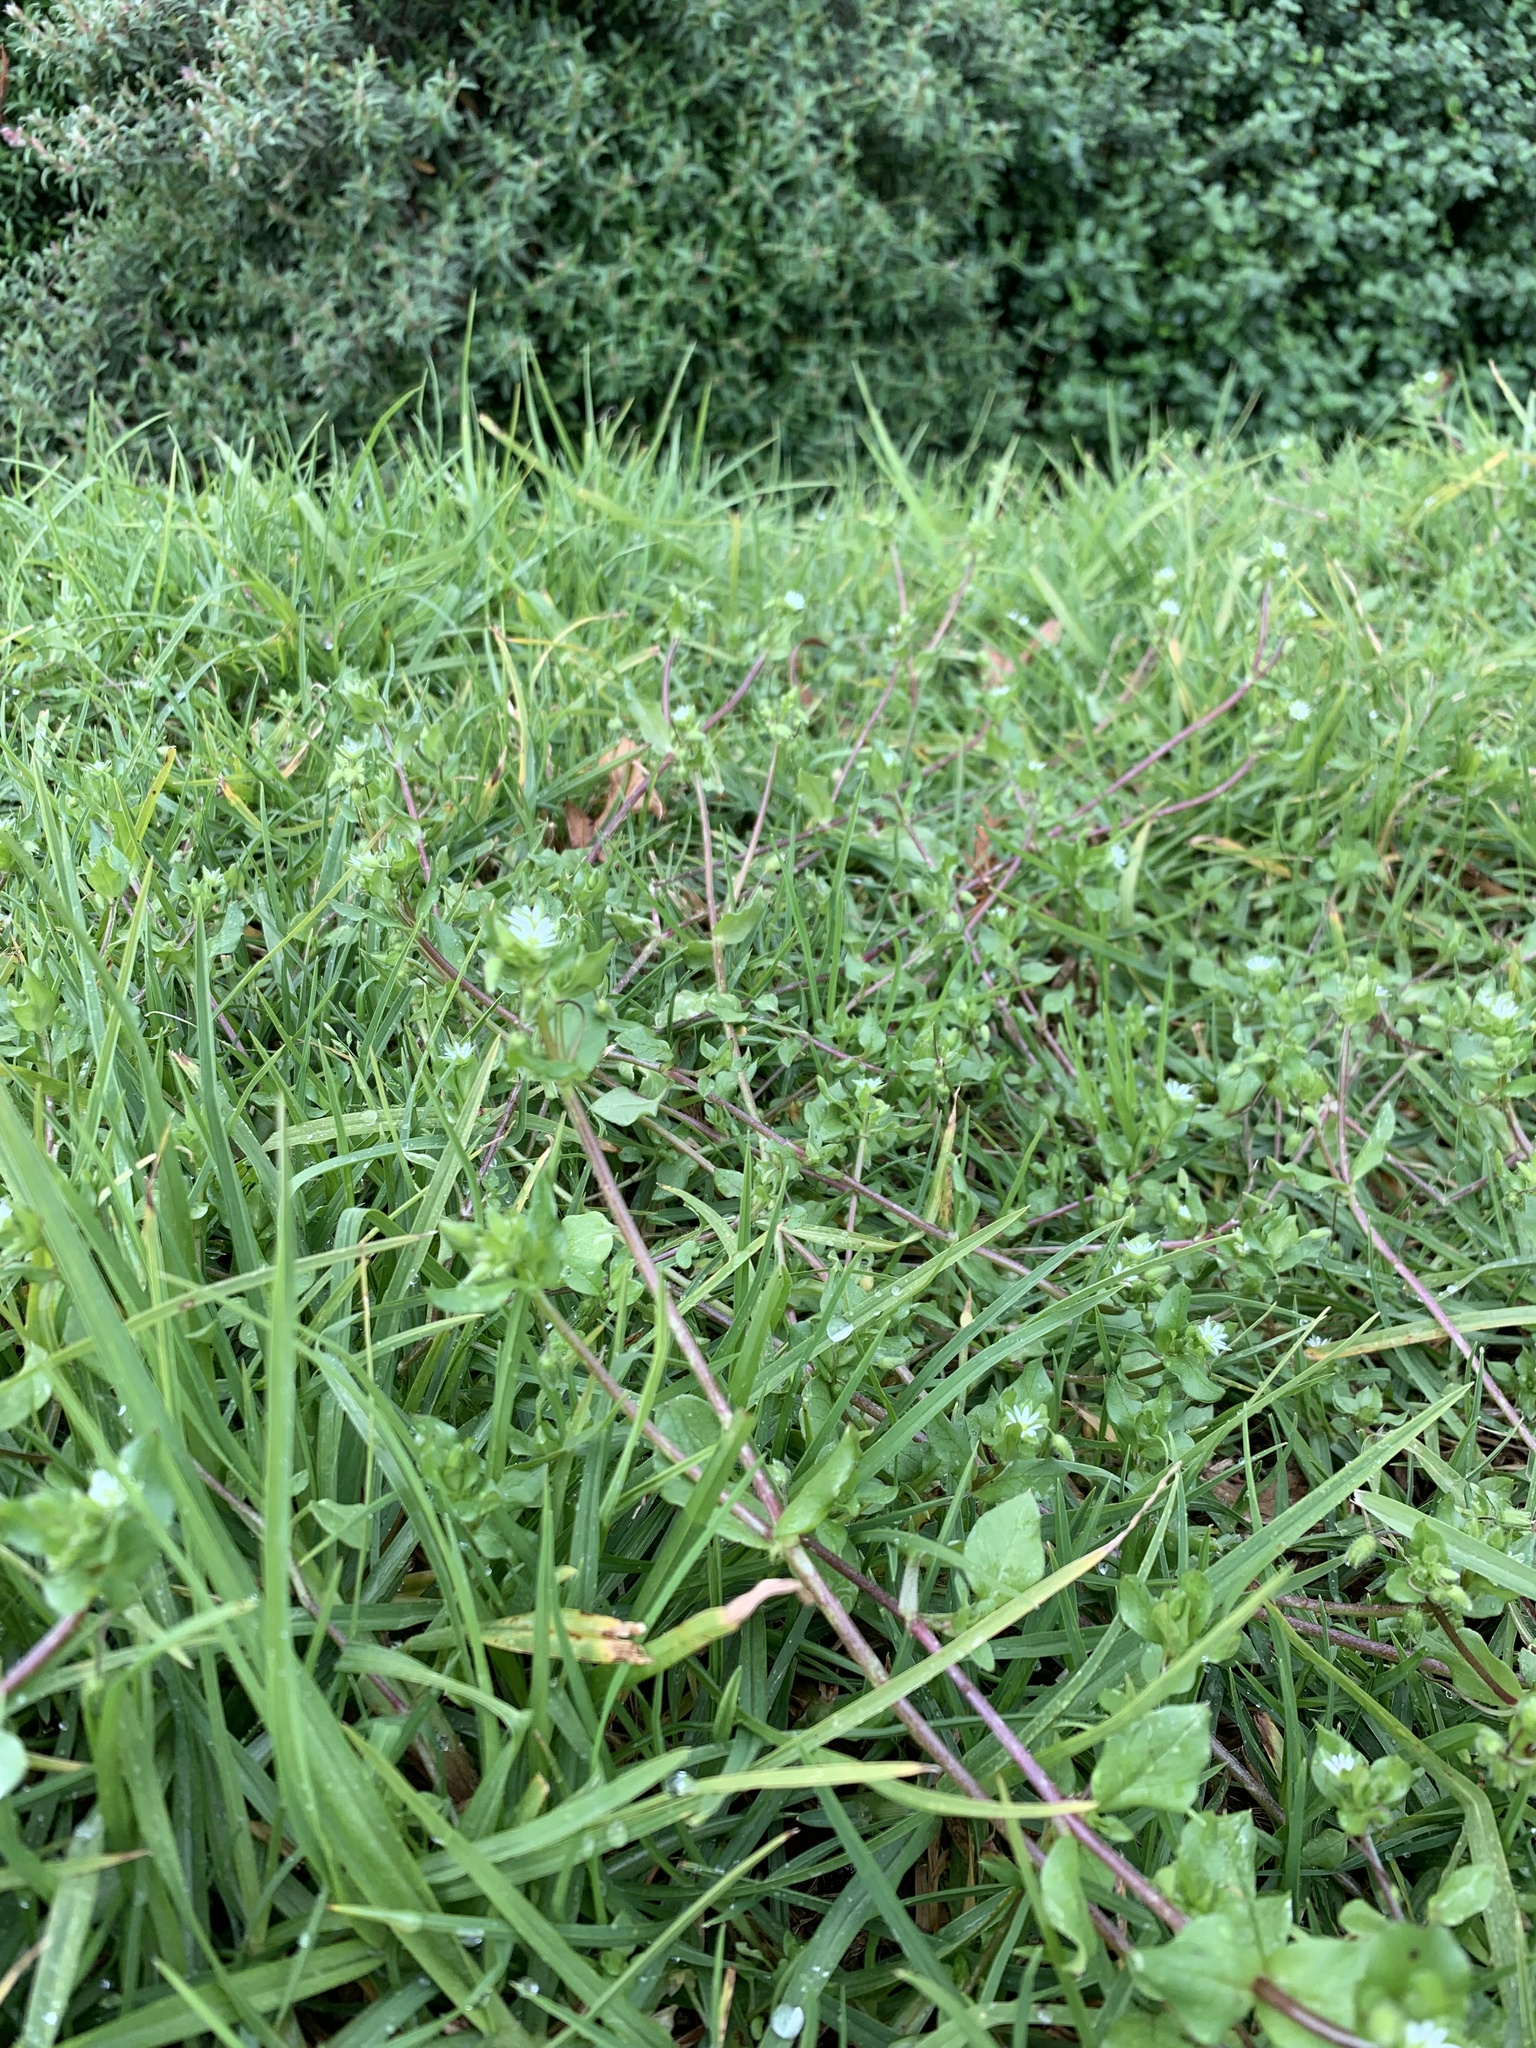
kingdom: Plantae
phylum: Tracheophyta
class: Magnoliopsida
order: Caryophyllales
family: Caryophyllaceae
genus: Stellaria
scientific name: Stellaria media
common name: Common chickweed
